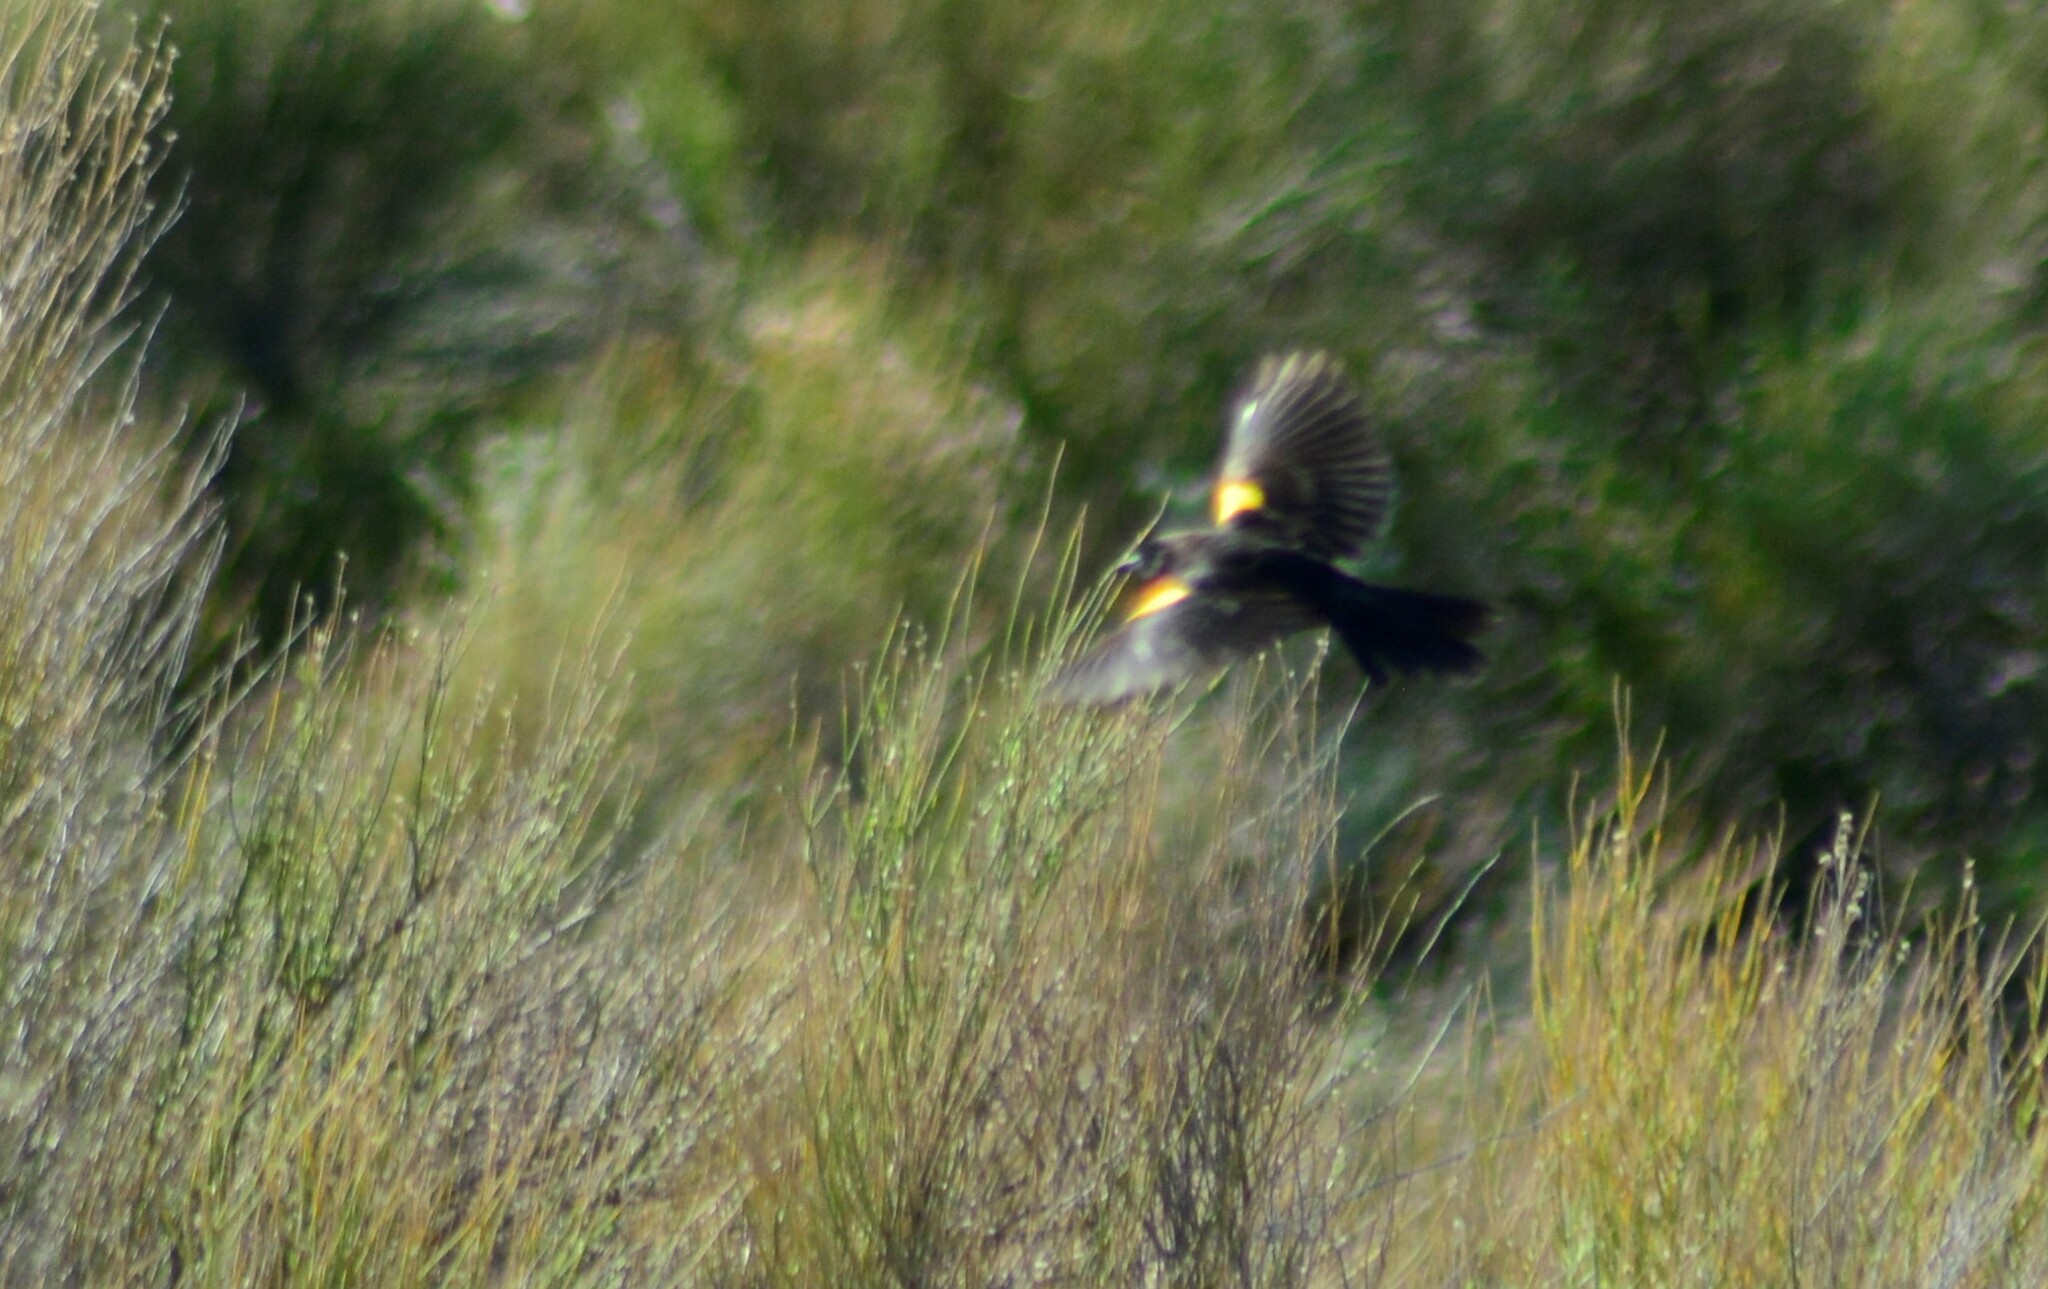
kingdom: Animalia
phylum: Chordata
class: Aves
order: Passeriformes
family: Icteridae
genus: Agelasticus
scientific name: Agelasticus thilius
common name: Yellow-winged blackbird
